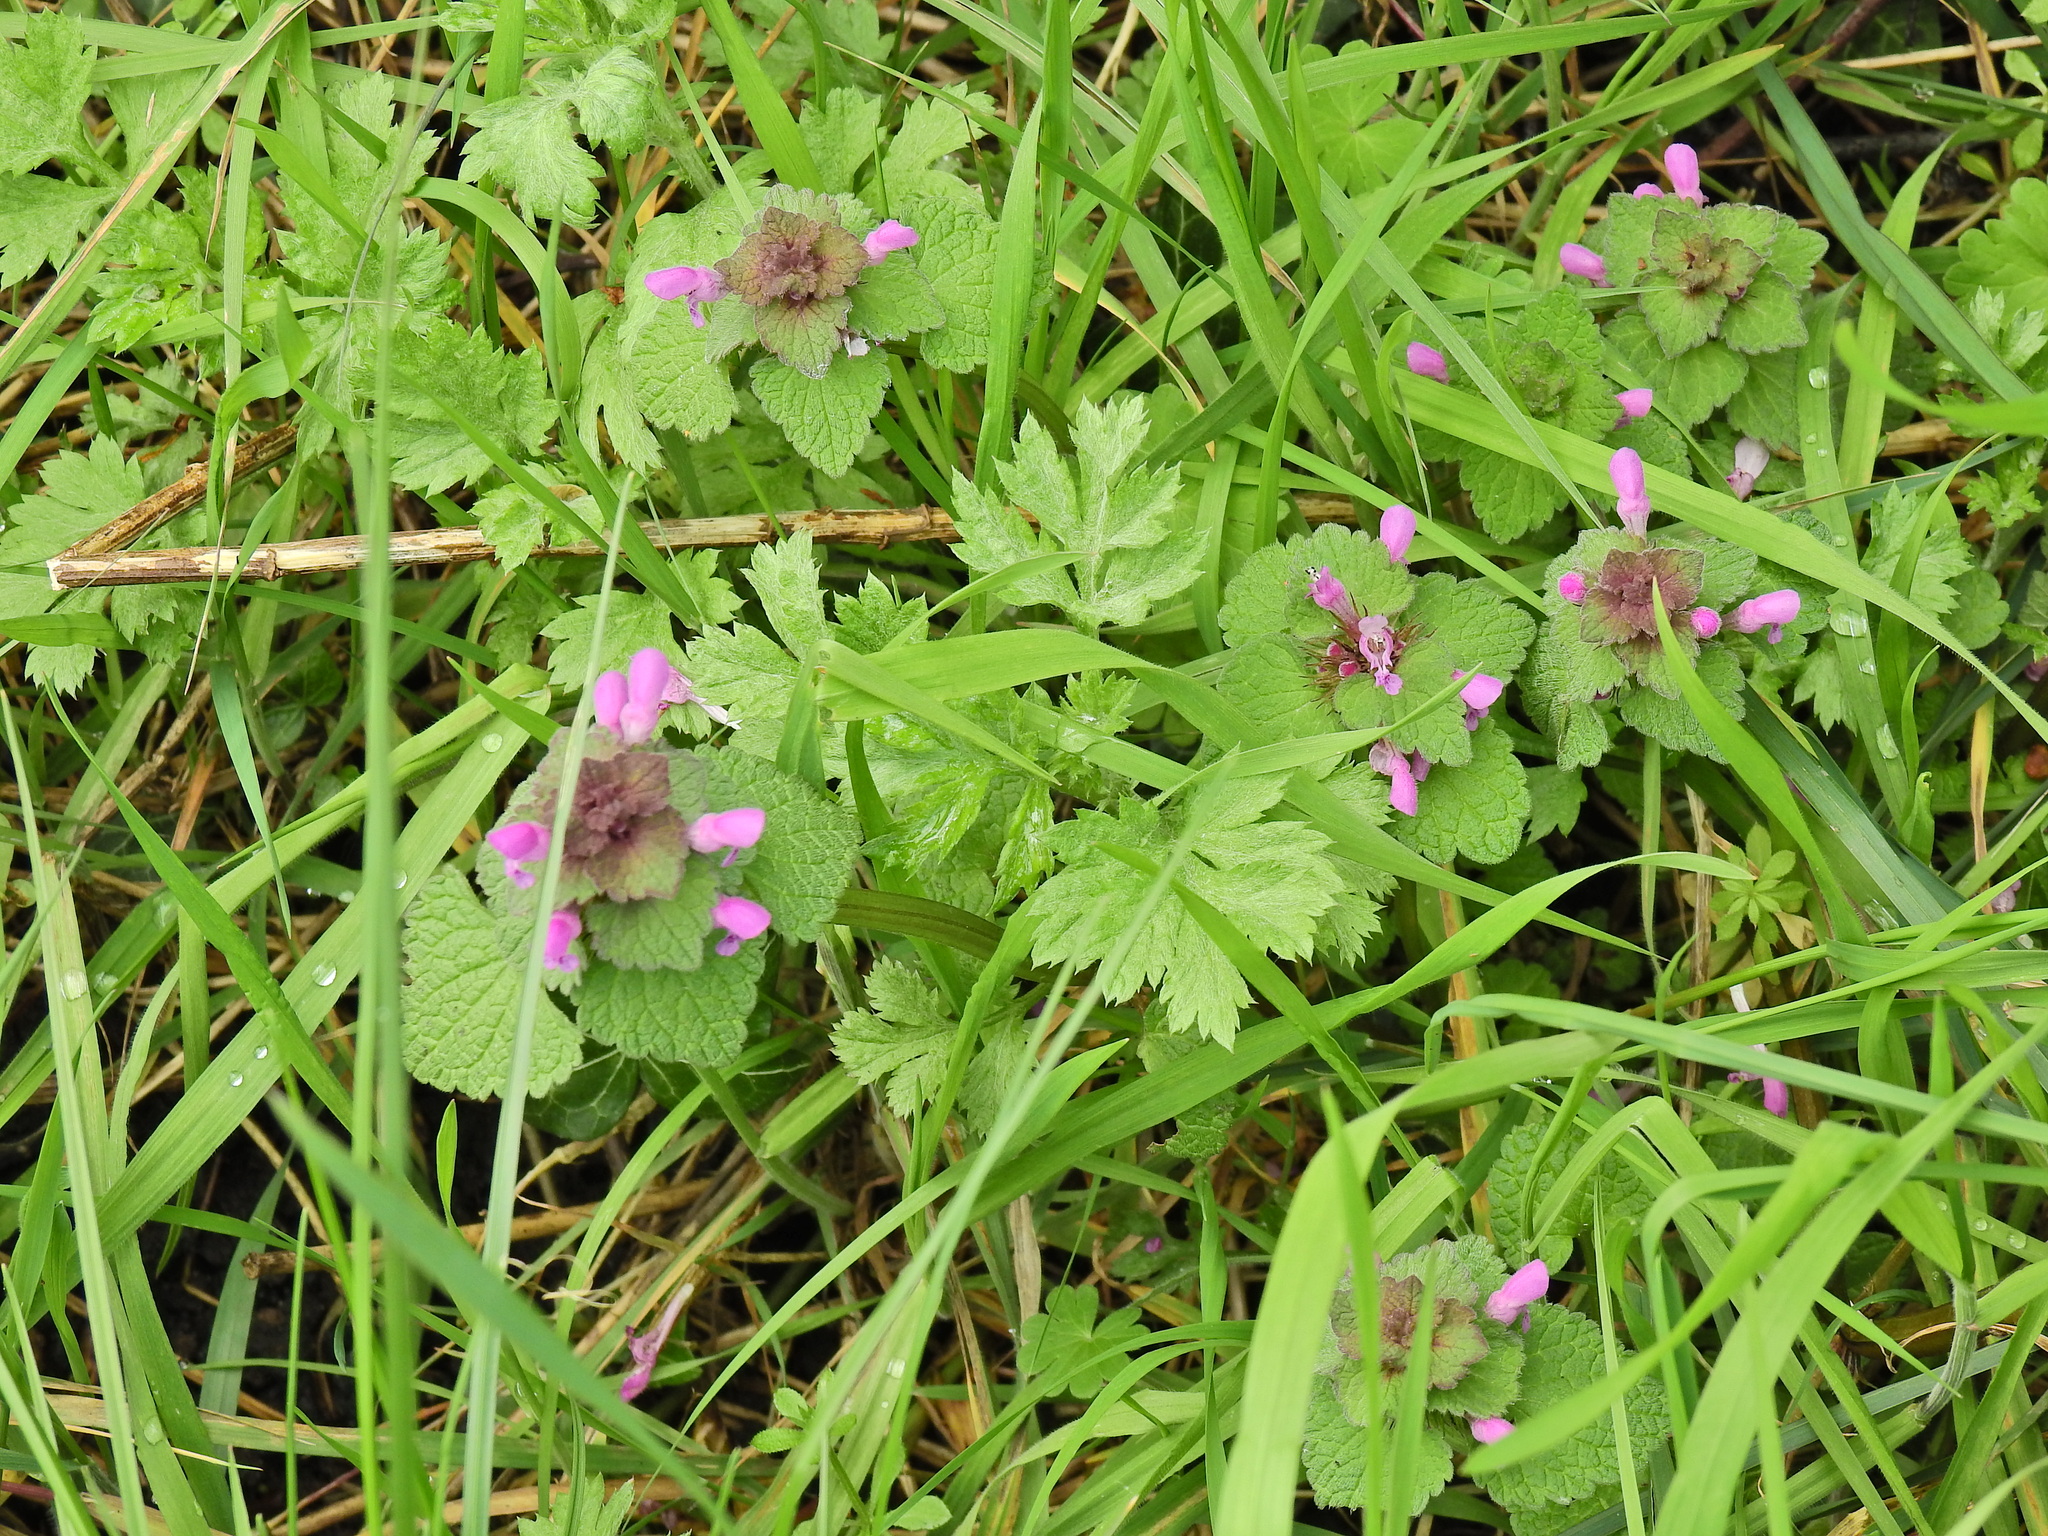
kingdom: Plantae
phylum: Tracheophyta
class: Magnoliopsida
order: Lamiales
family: Lamiaceae
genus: Lamium
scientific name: Lamium purpureum
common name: Red dead-nettle
